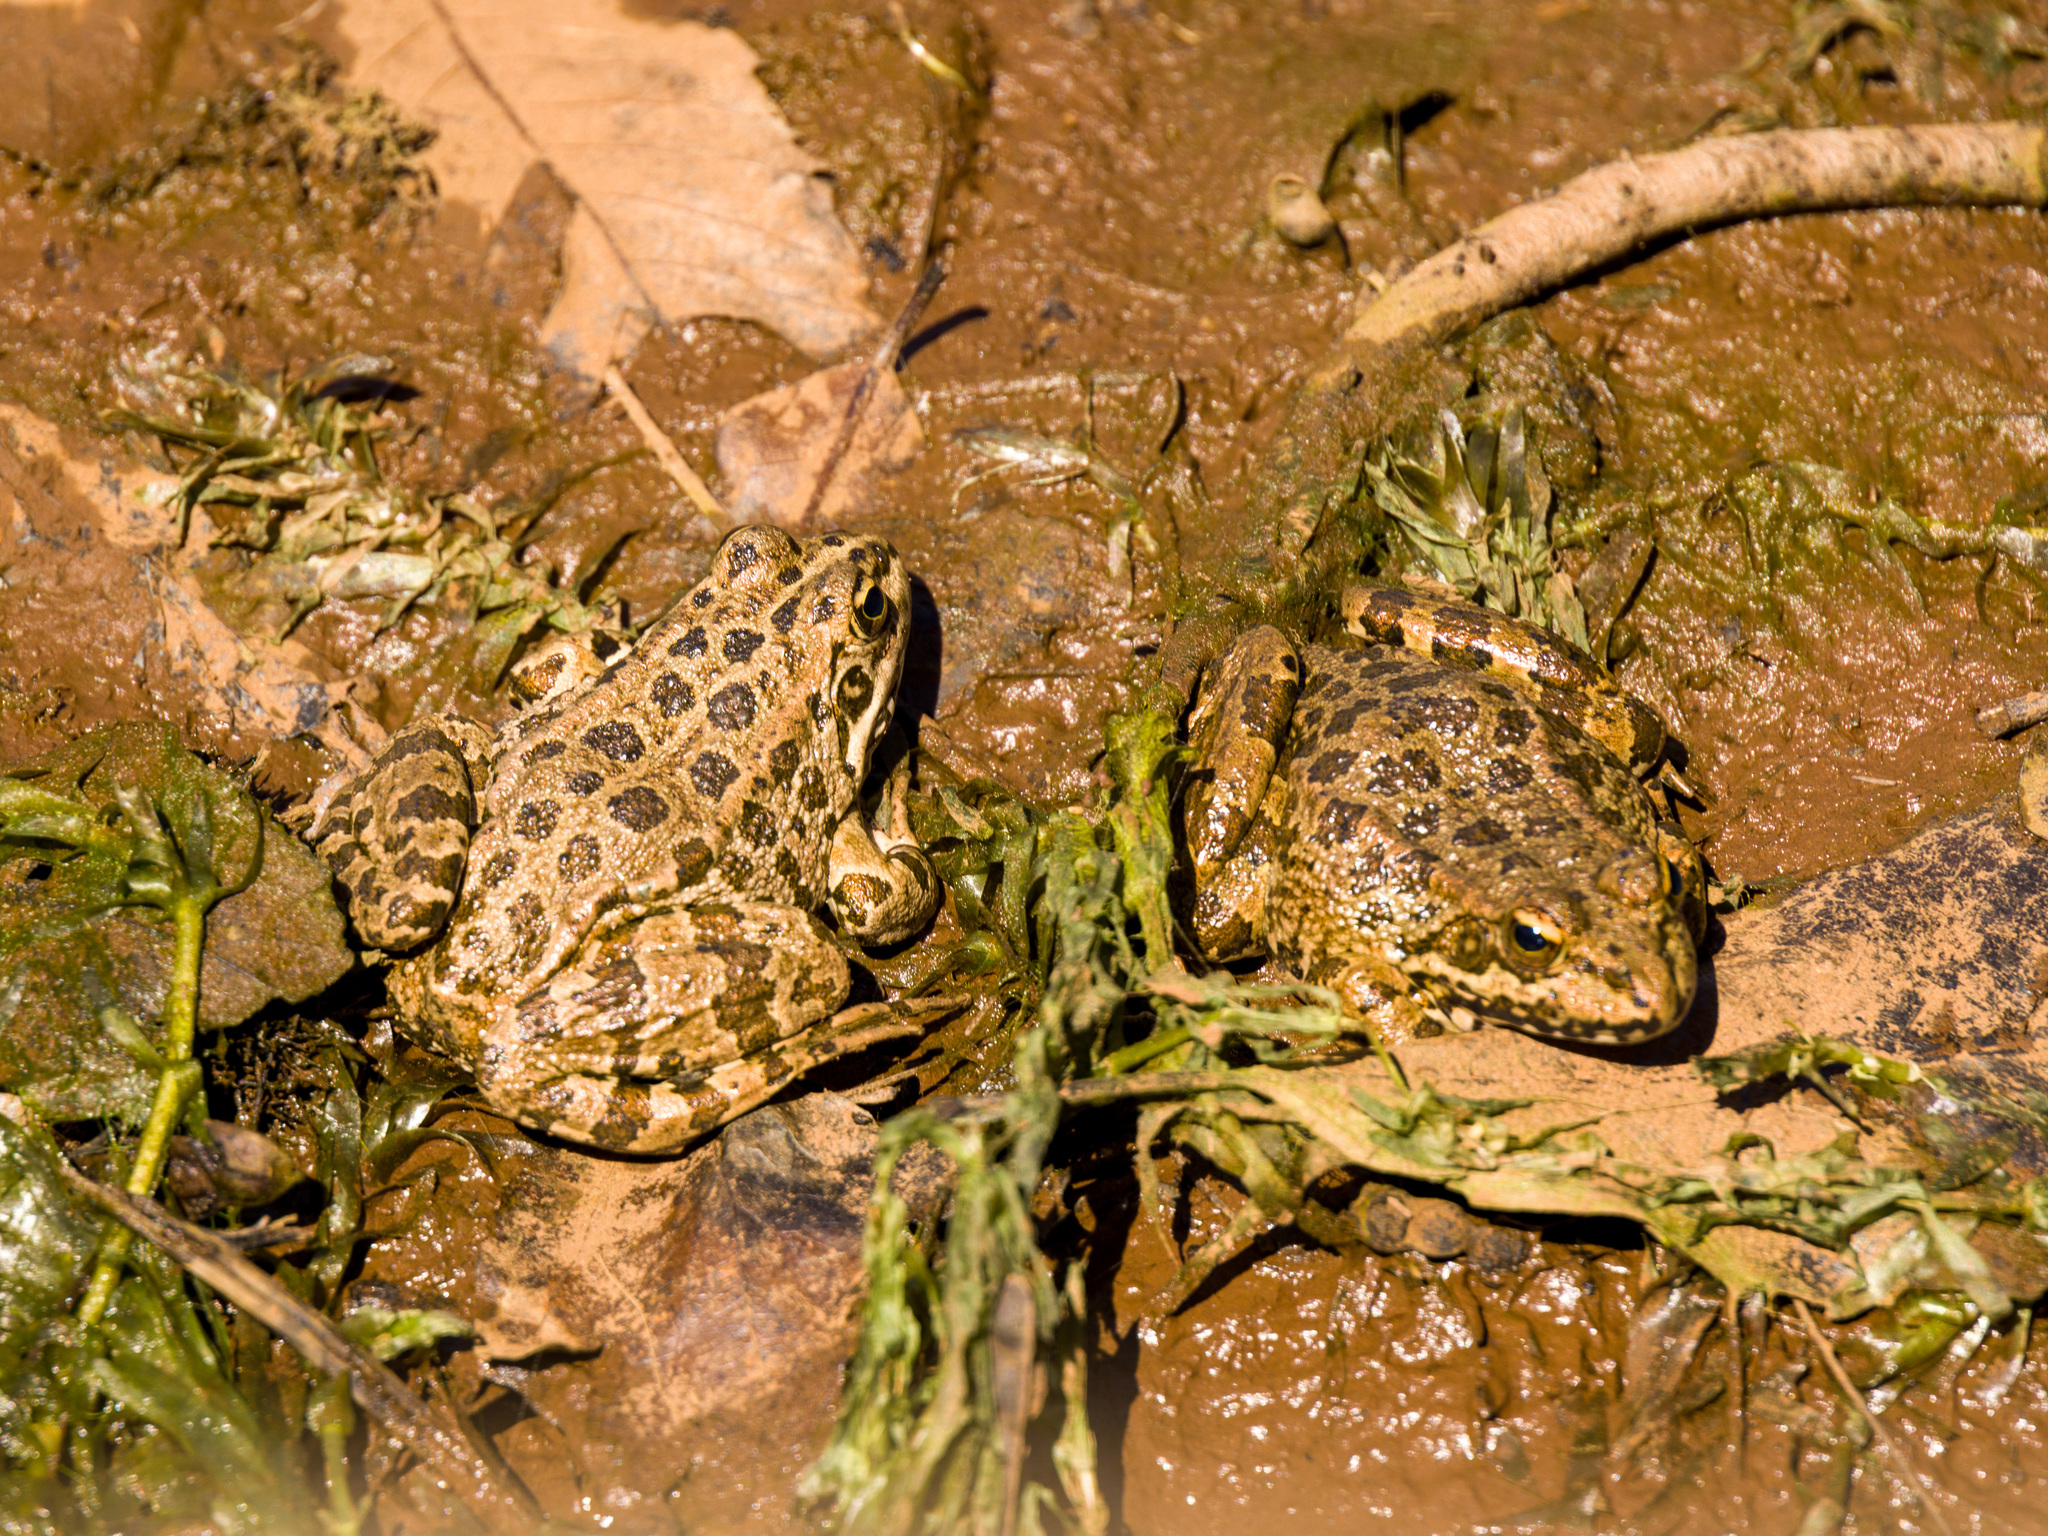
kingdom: Animalia
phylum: Chordata
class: Amphibia
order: Anura
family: Ranidae
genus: Pelophylax
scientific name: Pelophylax perezi
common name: Perez's frog
